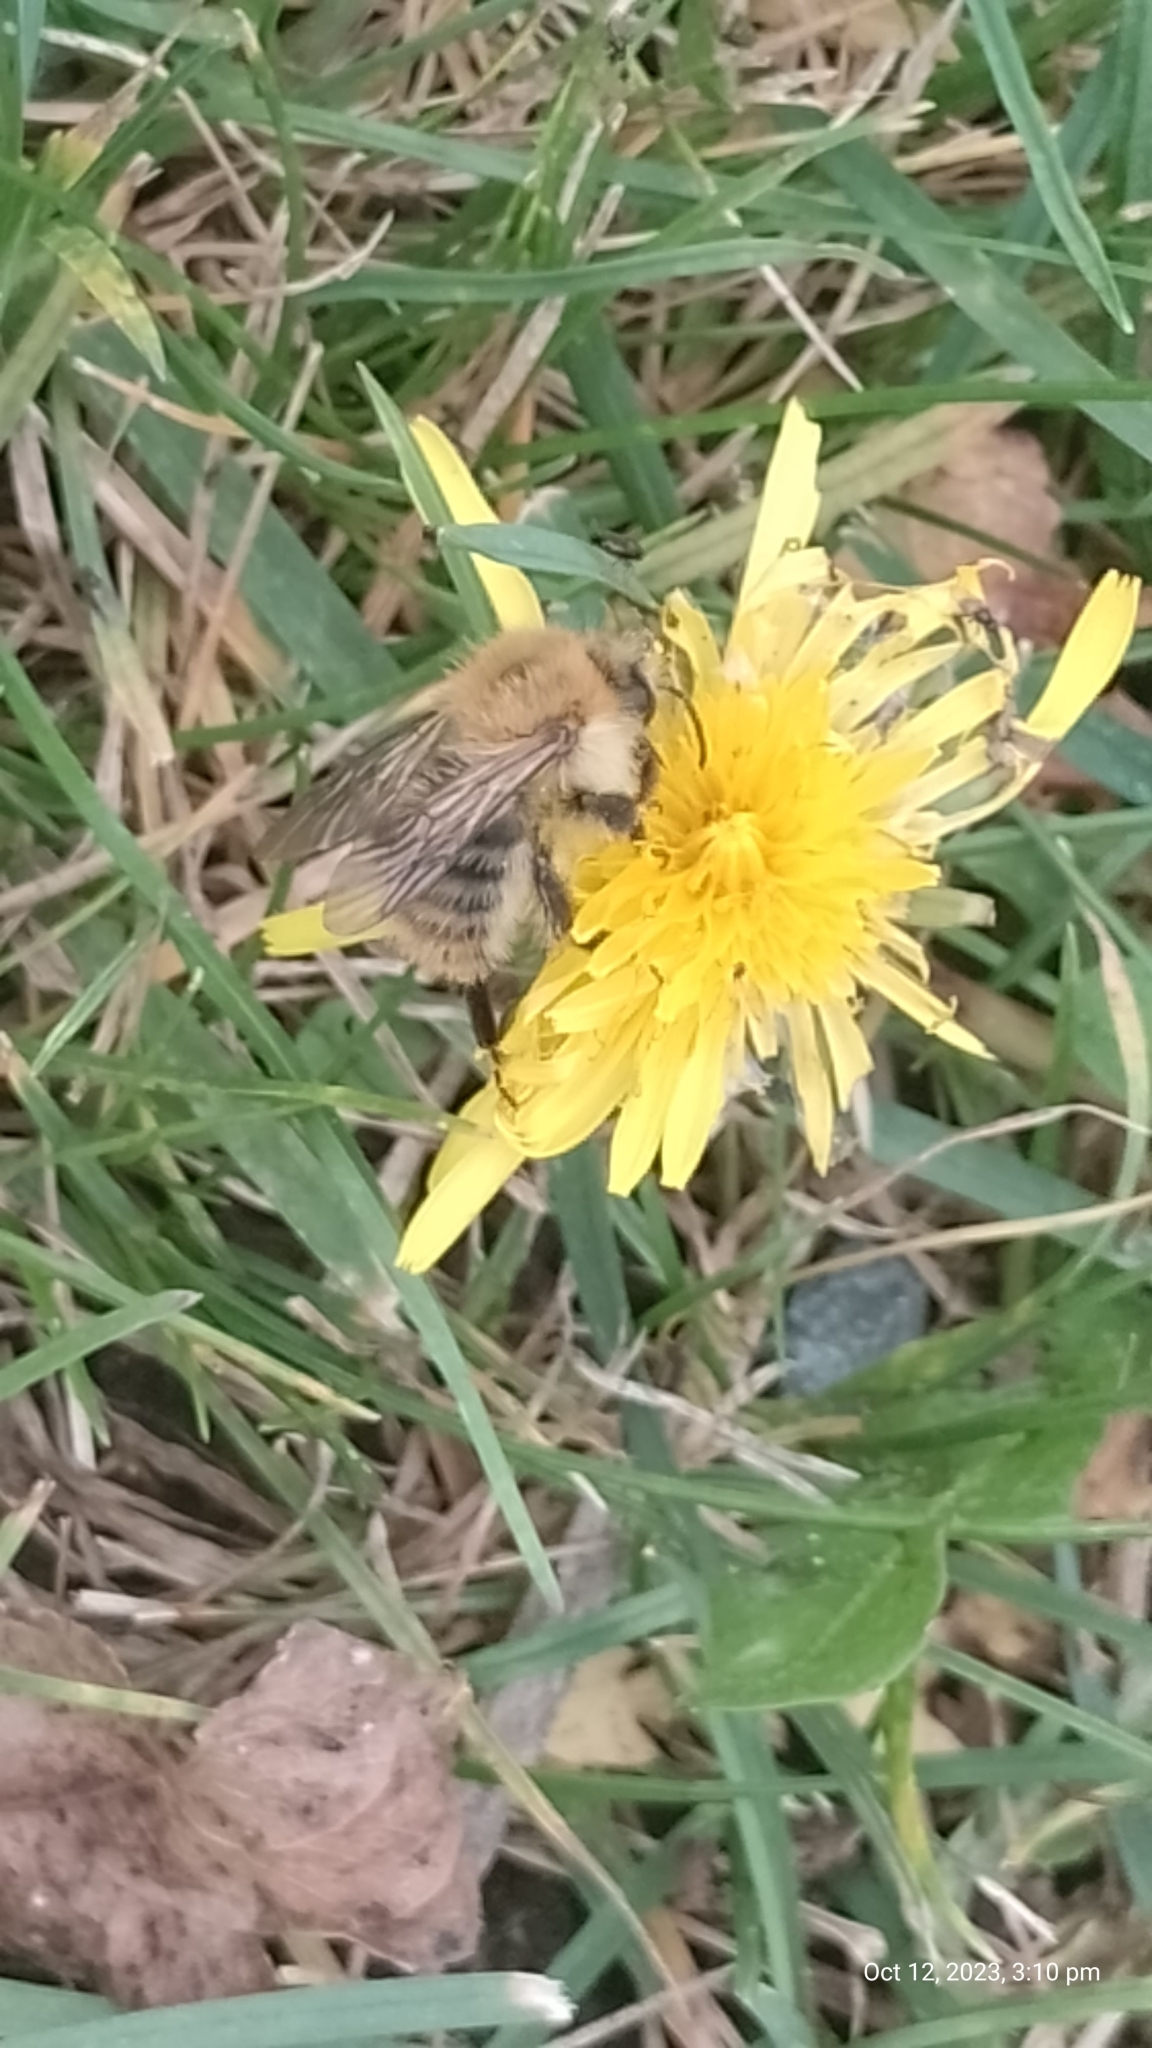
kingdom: Animalia
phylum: Arthropoda
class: Insecta
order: Hymenoptera
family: Apidae
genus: Bombus
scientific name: Bombus pascuorum
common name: Common carder bee
